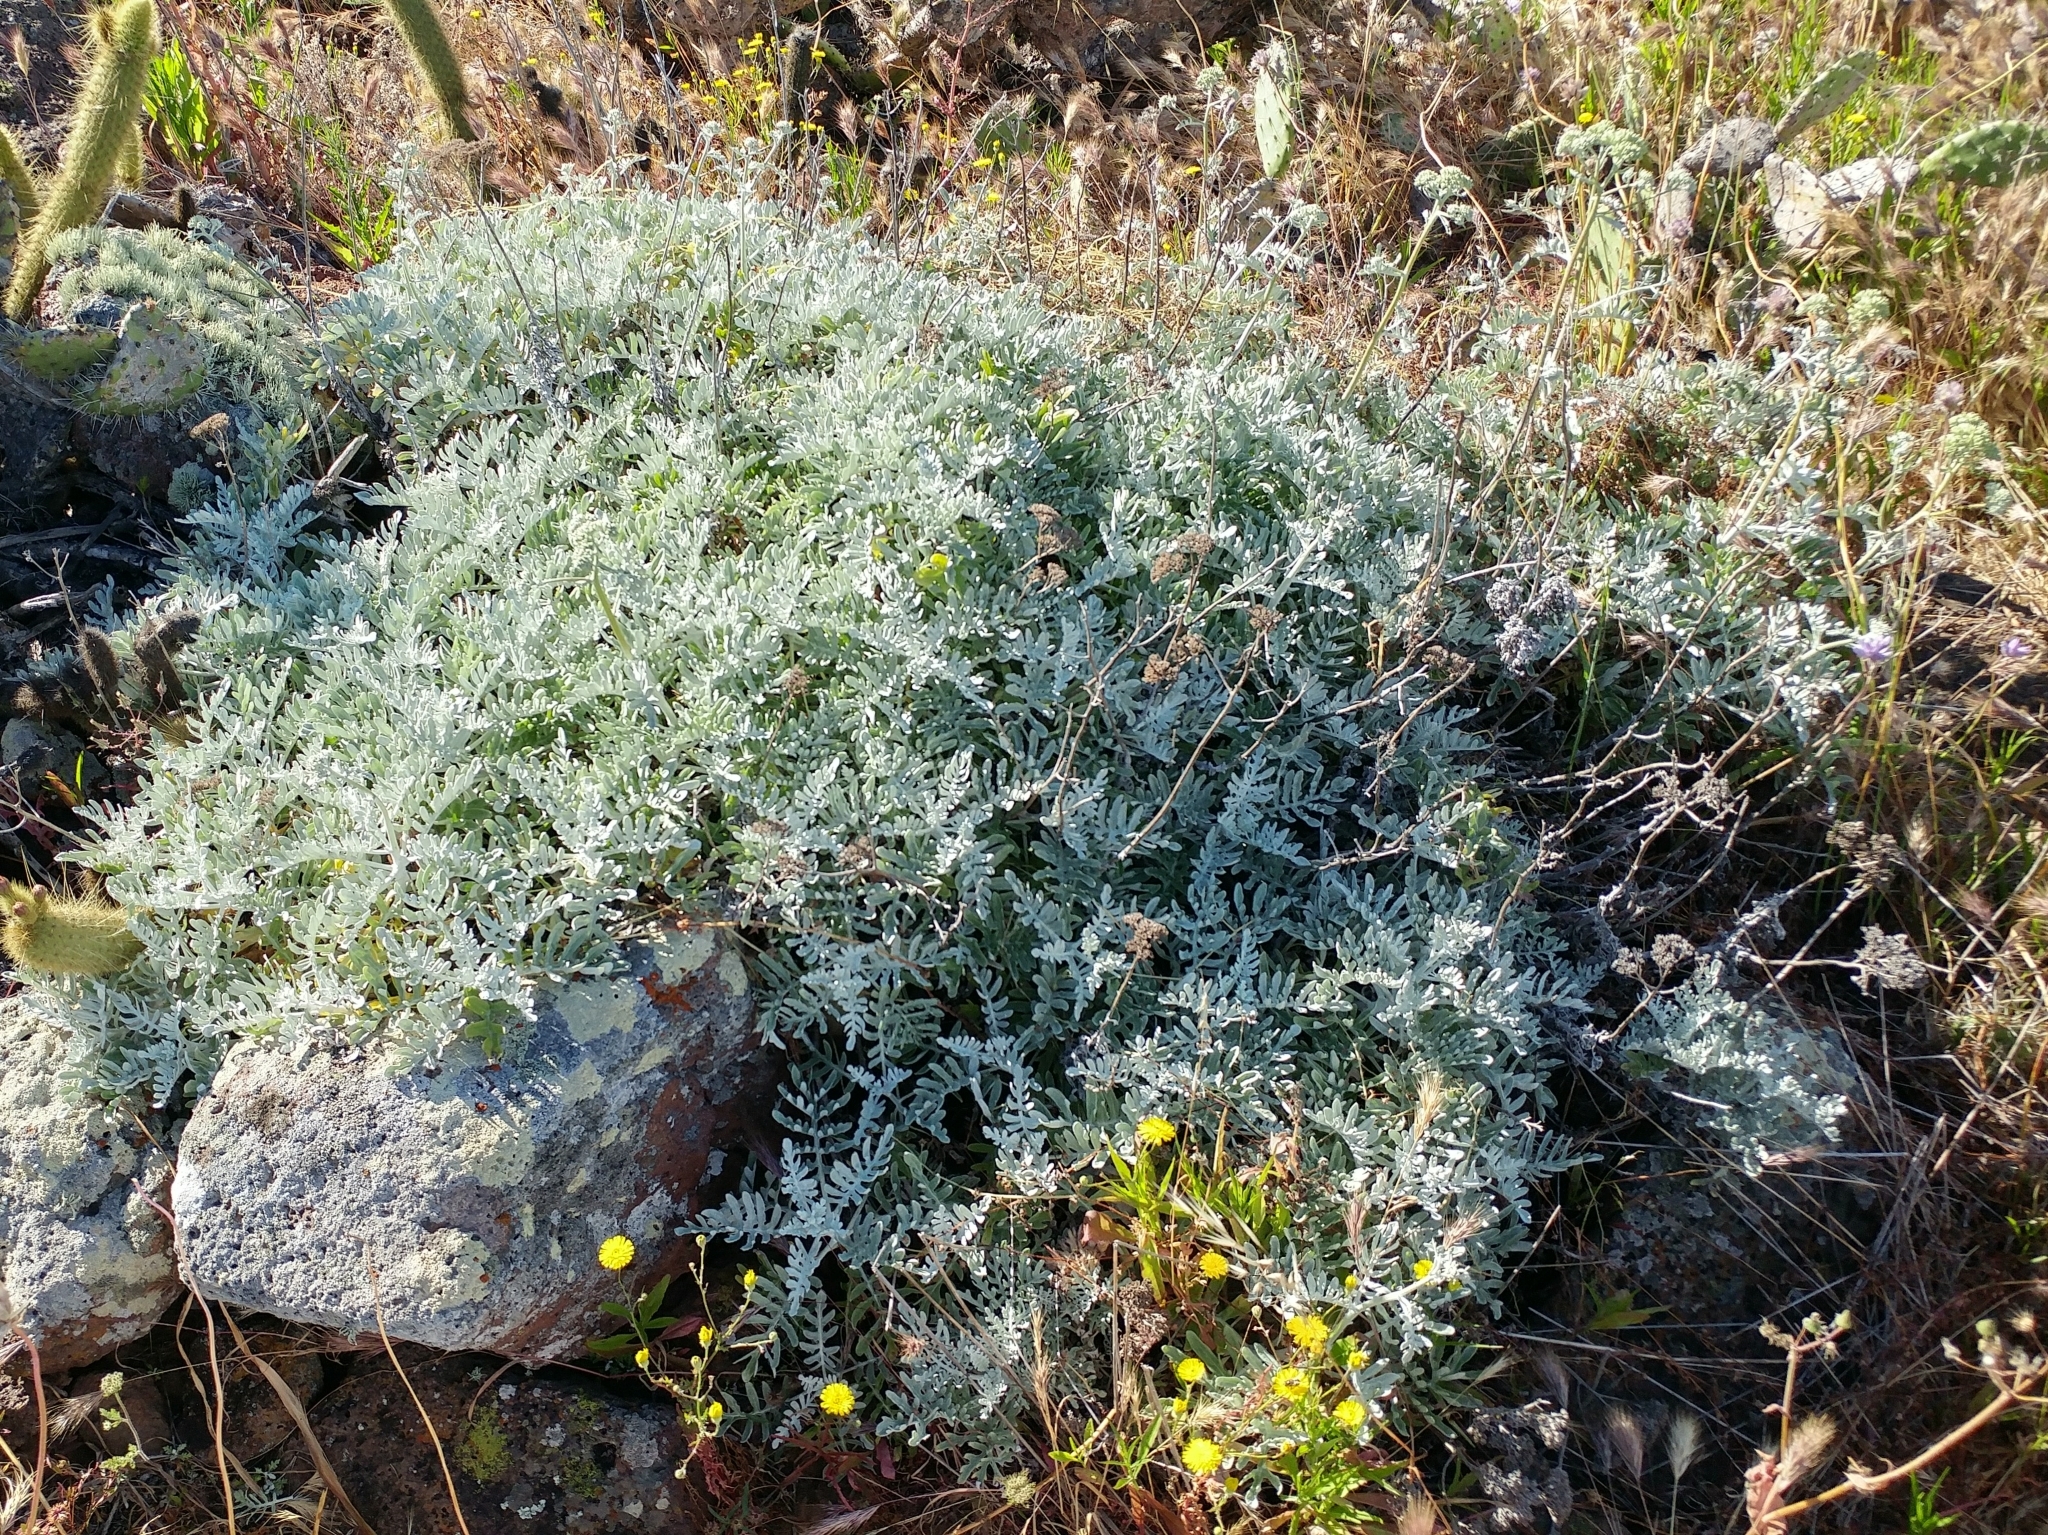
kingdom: Plantae
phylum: Tracheophyta
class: Magnoliopsida
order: Asterales
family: Asteraceae
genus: Constancea
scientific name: Constancea nevinii
